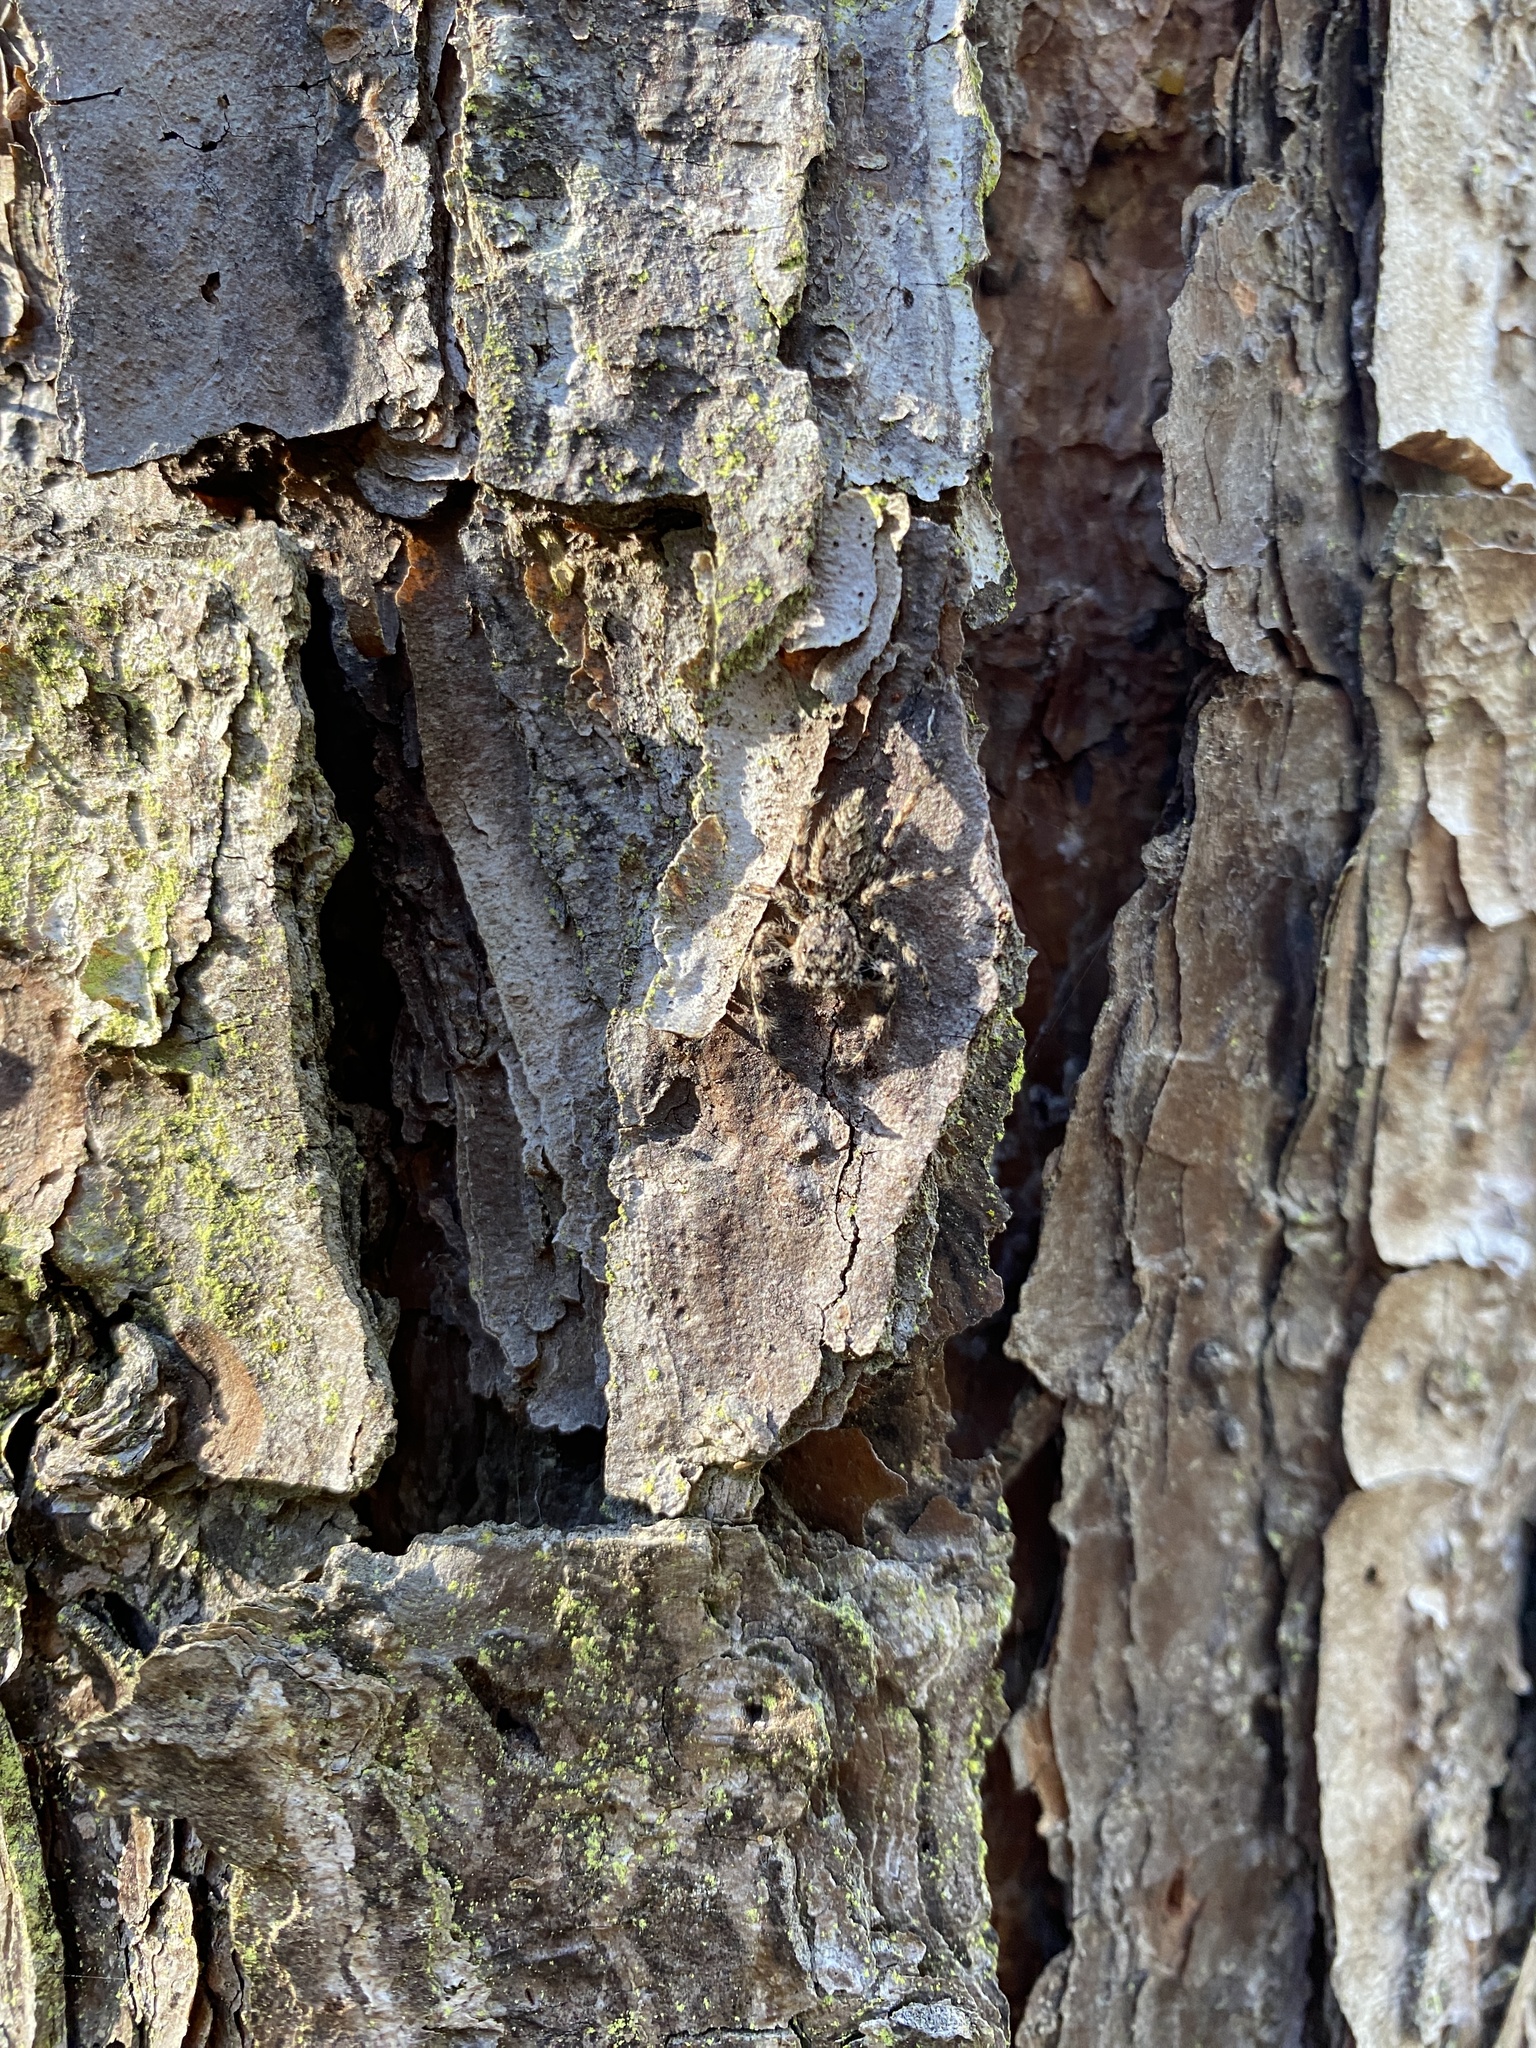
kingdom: Animalia
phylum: Arthropoda
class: Arachnida
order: Araneae
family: Salticidae
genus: Platycryptus
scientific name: Platycryptus undatus
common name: Tan jumping spider
